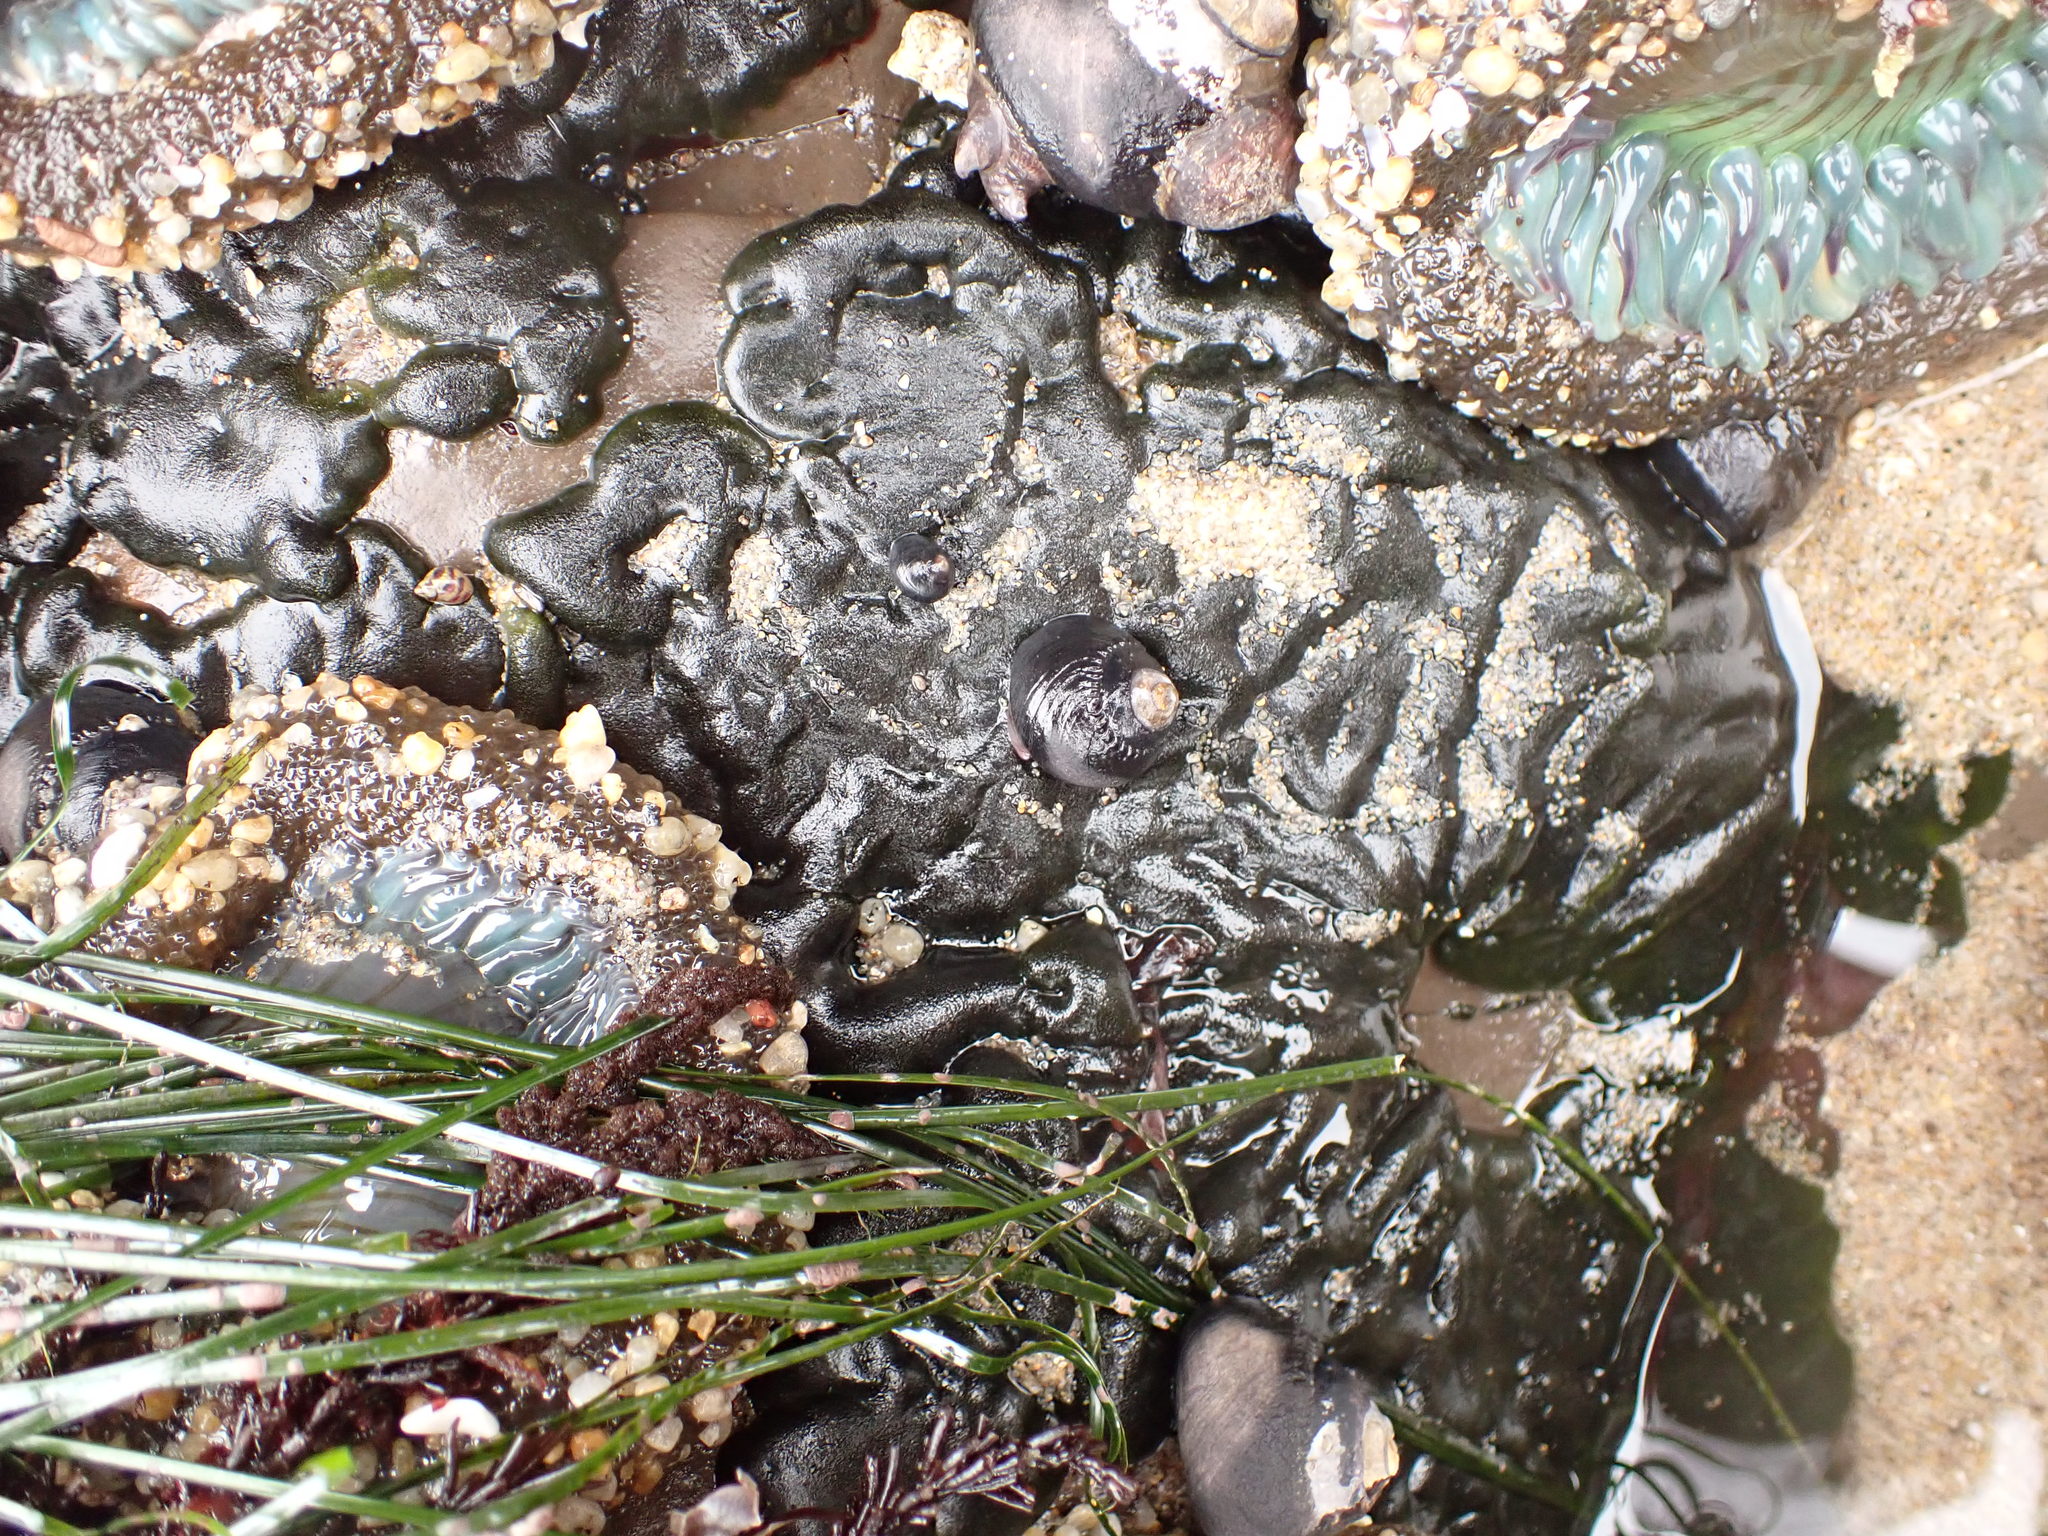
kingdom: Plantae
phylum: Chlorophyta
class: Ulvophyceae
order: Bryopsidales
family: Codiaceae
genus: Codium
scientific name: Codium setchellii
